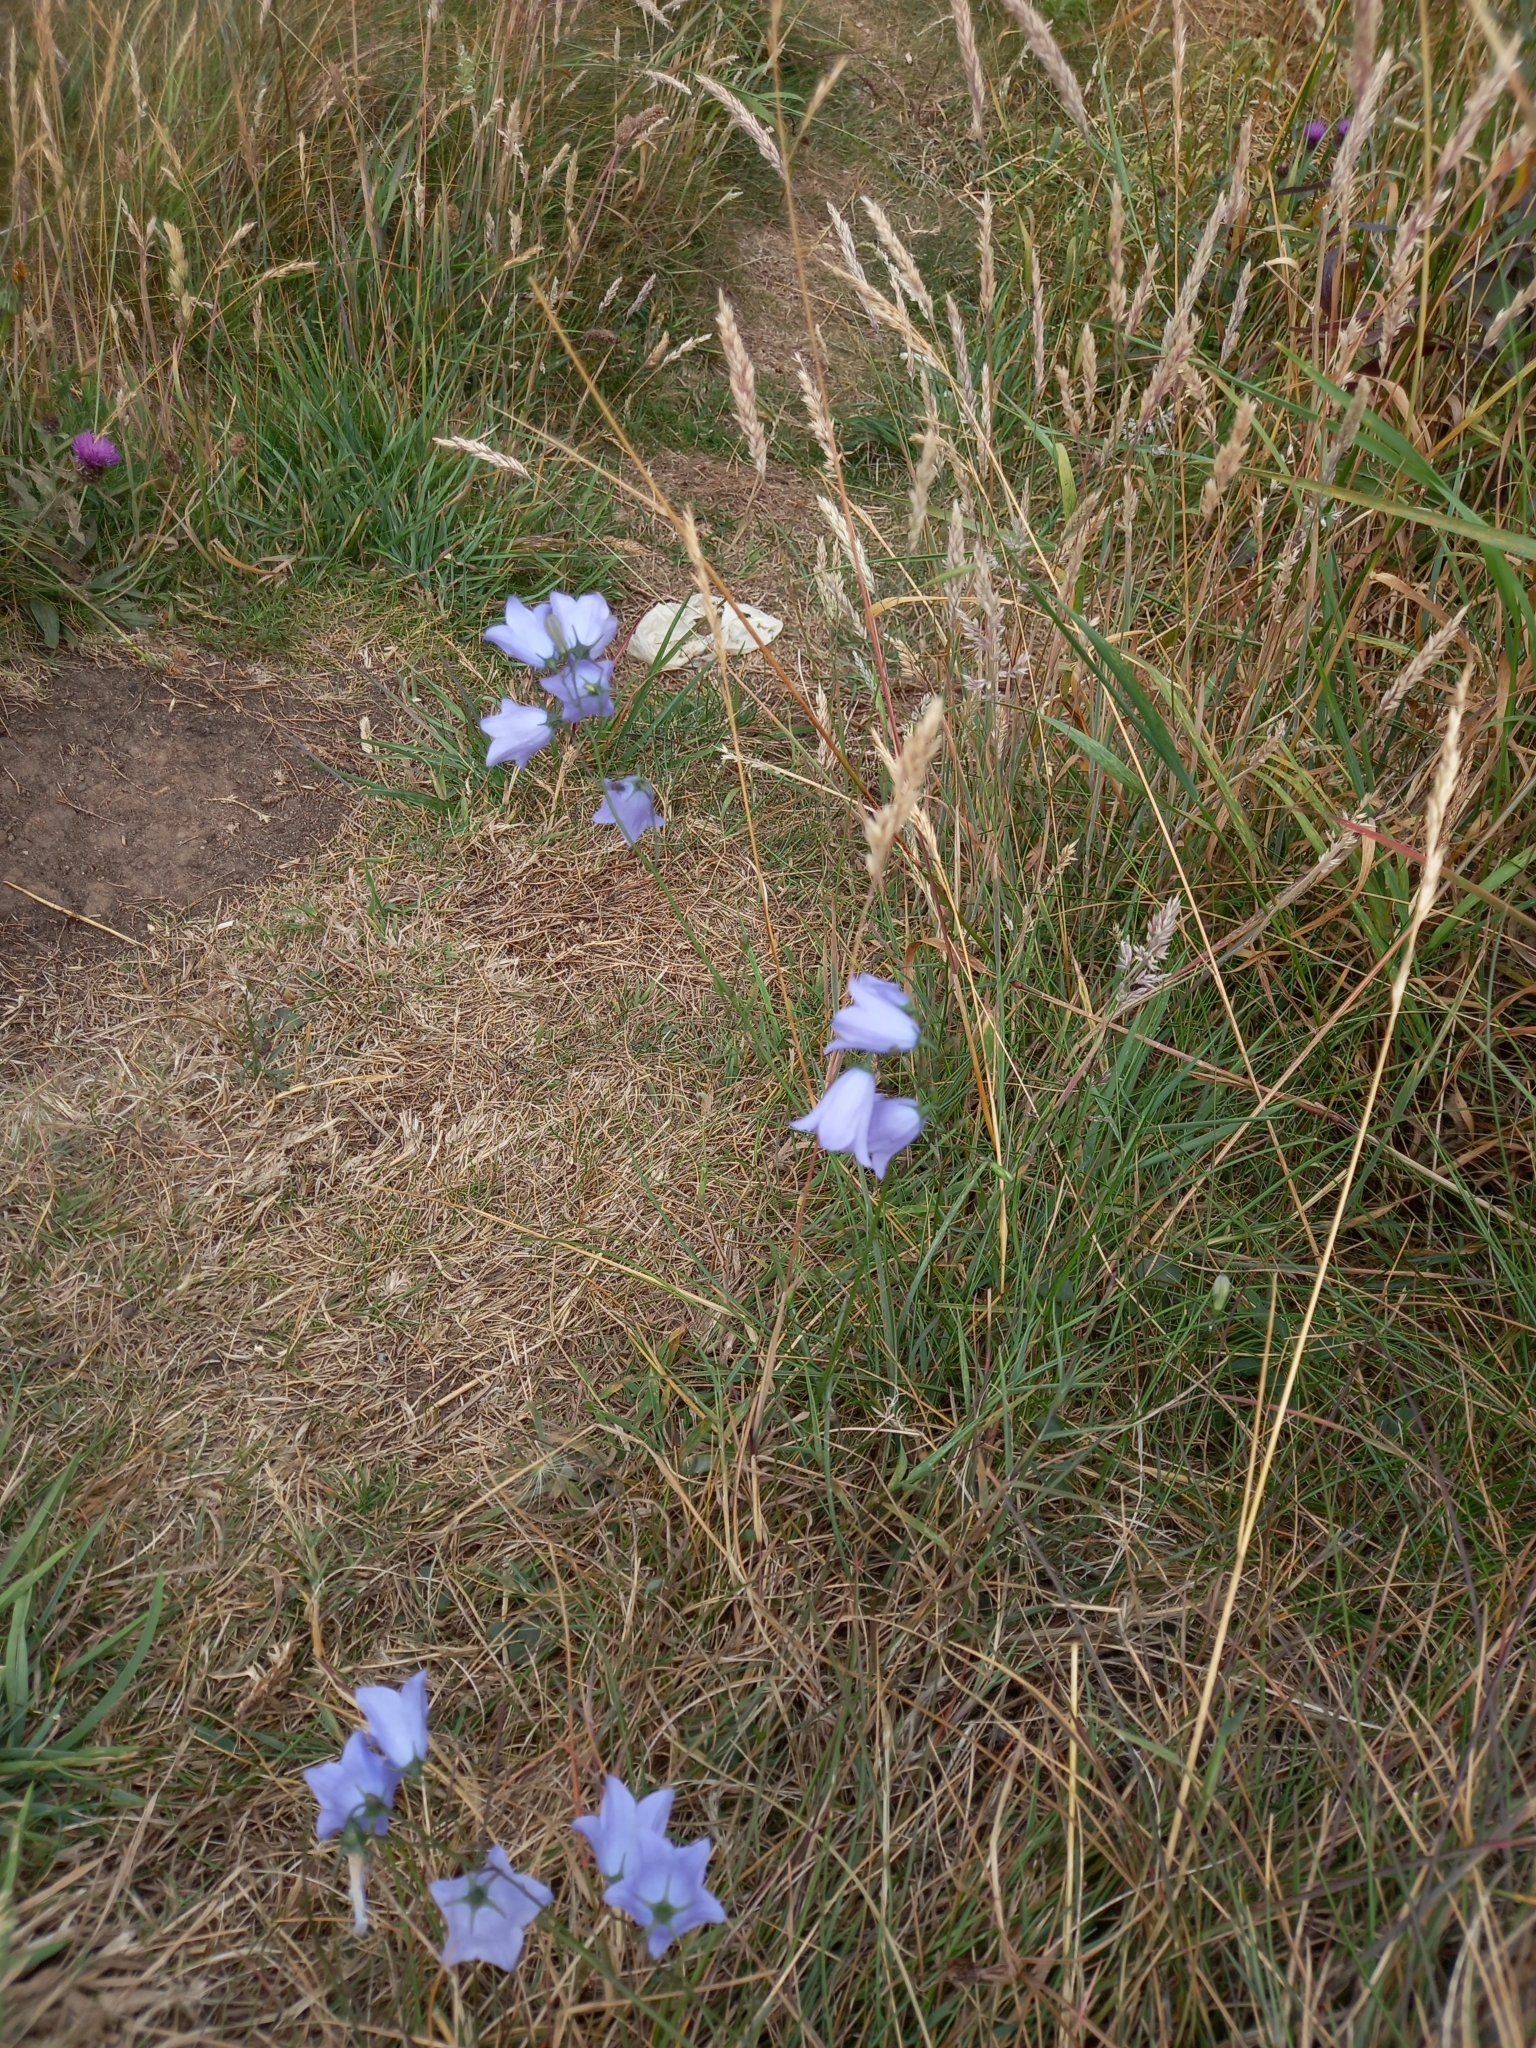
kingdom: Plantae
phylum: Tracheophyta
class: Magnoliopsida
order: Asterales
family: Campanulaceae
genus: Campanula
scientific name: Campanula rotundifolia
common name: Harebell
